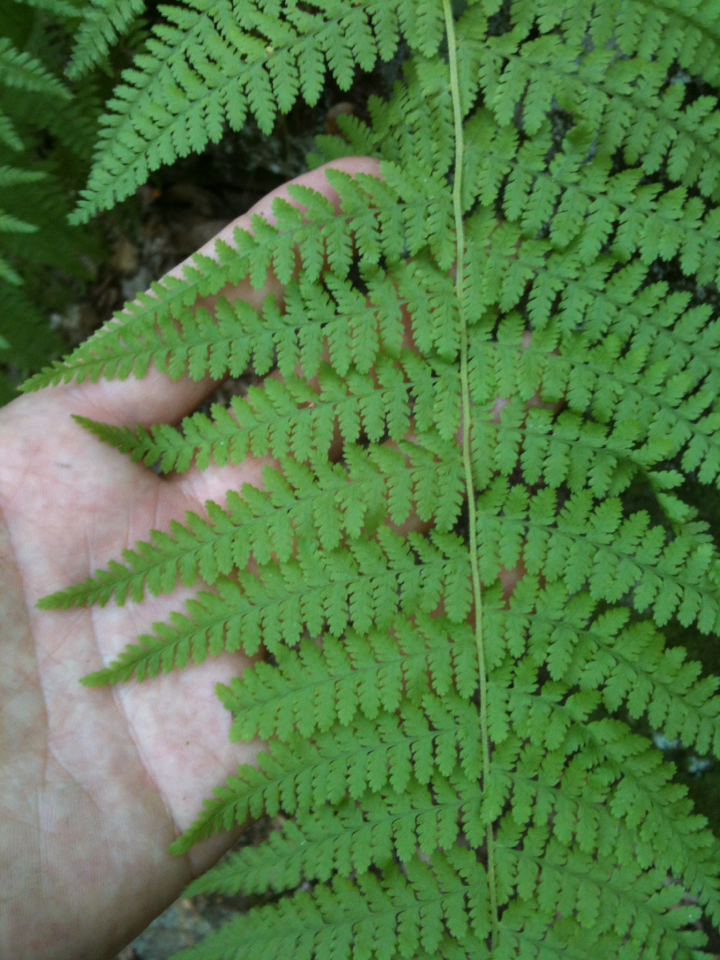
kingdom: Plantae
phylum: Tracheophyta
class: Polypodiopsida
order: Polypodiales
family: Dennstaedtiaceae
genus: Sitobolium
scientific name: Sitobolium punctilobum
